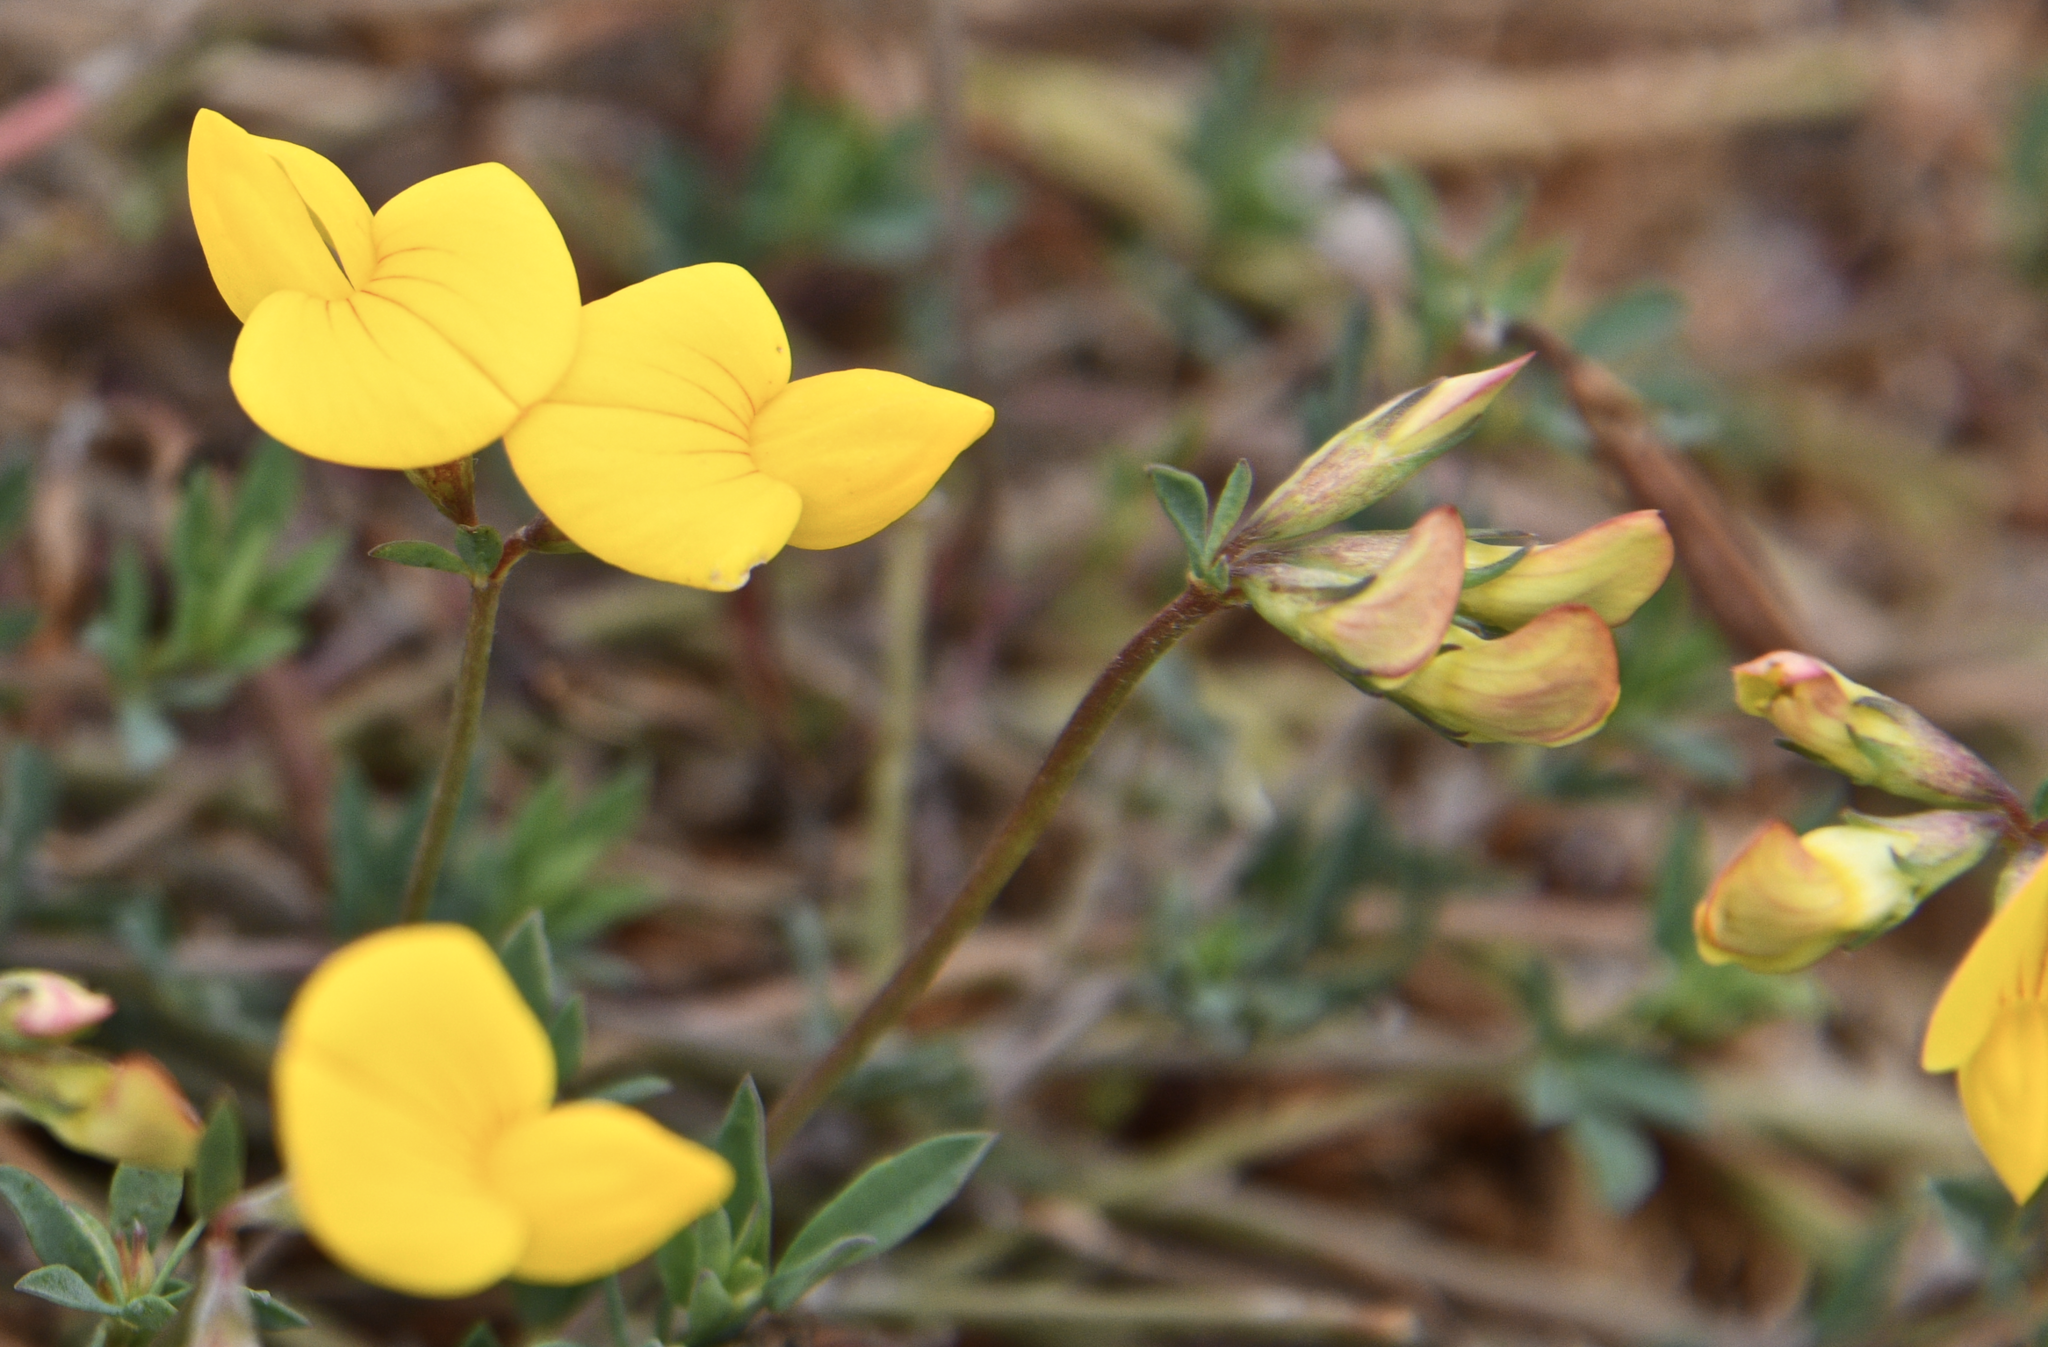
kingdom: Plantae
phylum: Tracheophyta
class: Magnoliopsida
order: Fabales
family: Fabaceae
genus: Lotus
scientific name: Lotus corniculatus
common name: Common bird's-foot-trefoil
